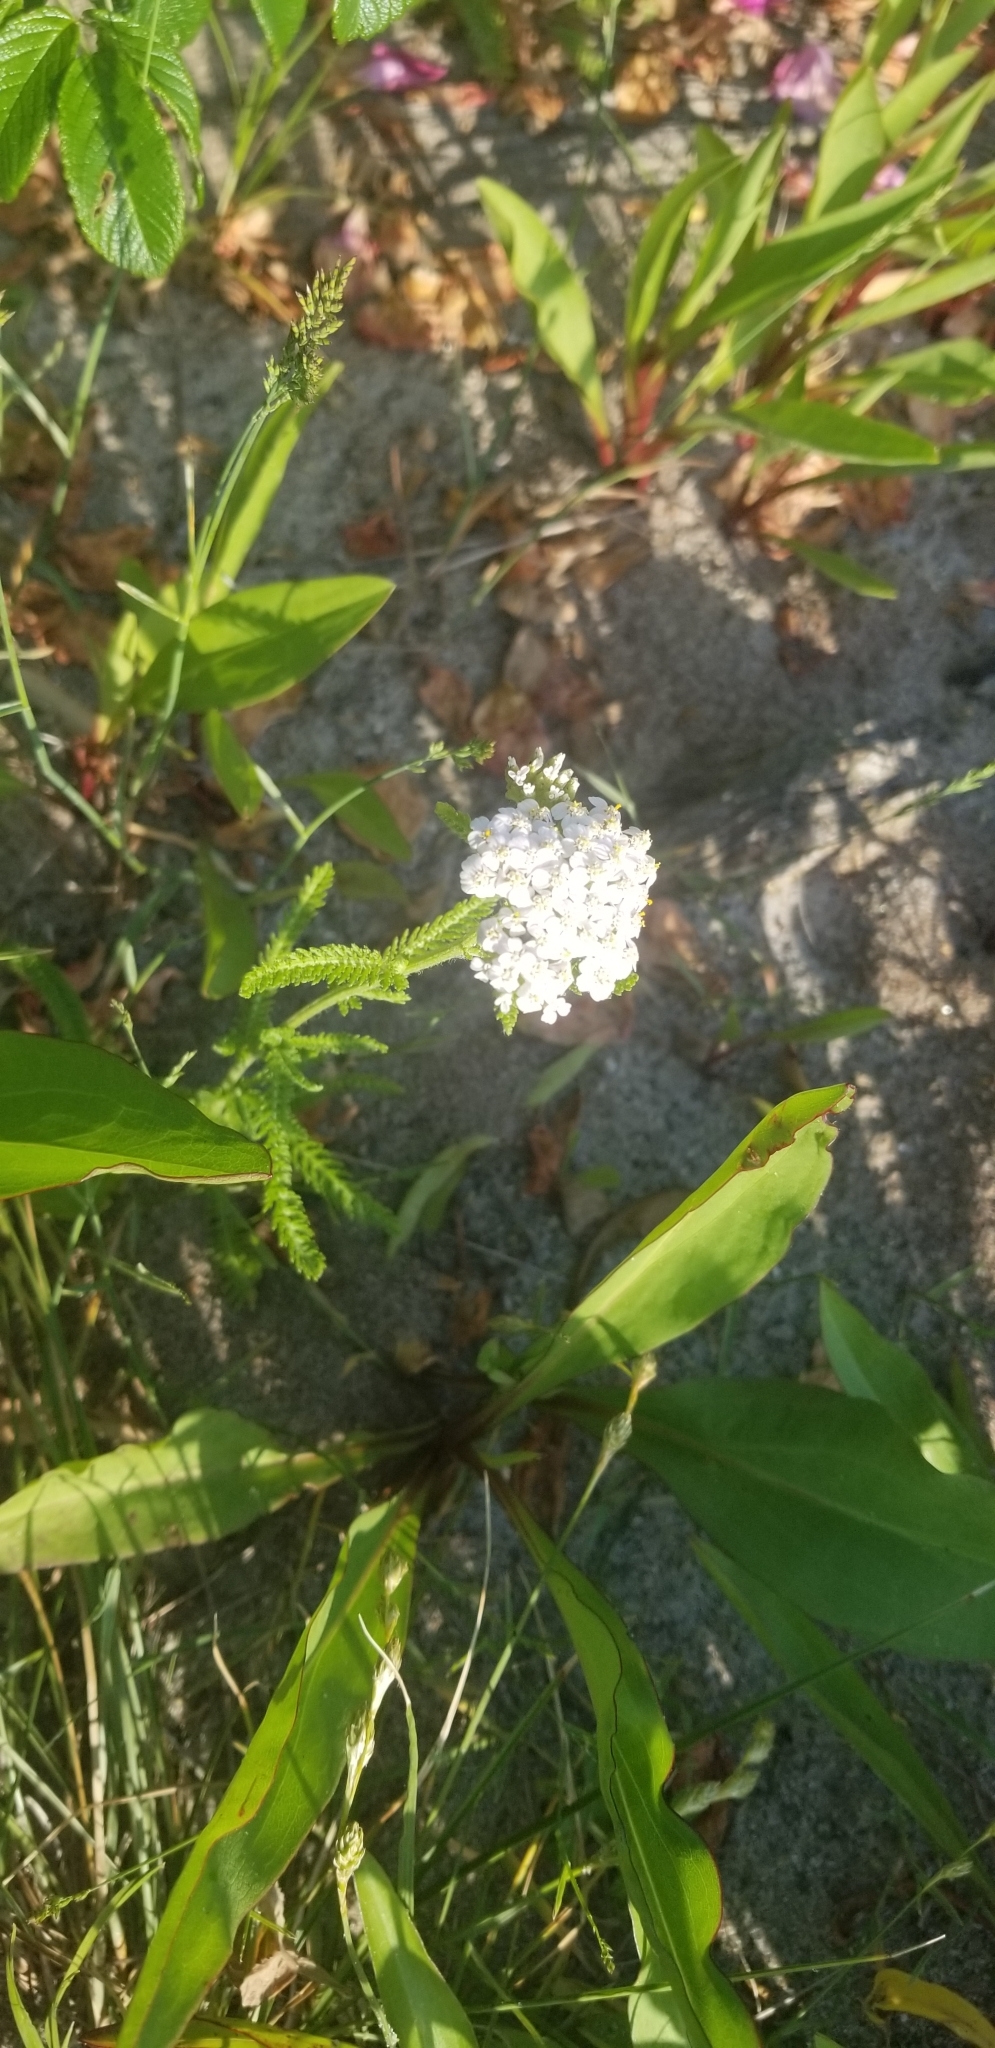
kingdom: Plantae
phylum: Tracheophyta
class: Magnoliopsida
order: Asterales
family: Asteraceae
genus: Achillea
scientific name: Achillea millefolium
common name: Yarrow
